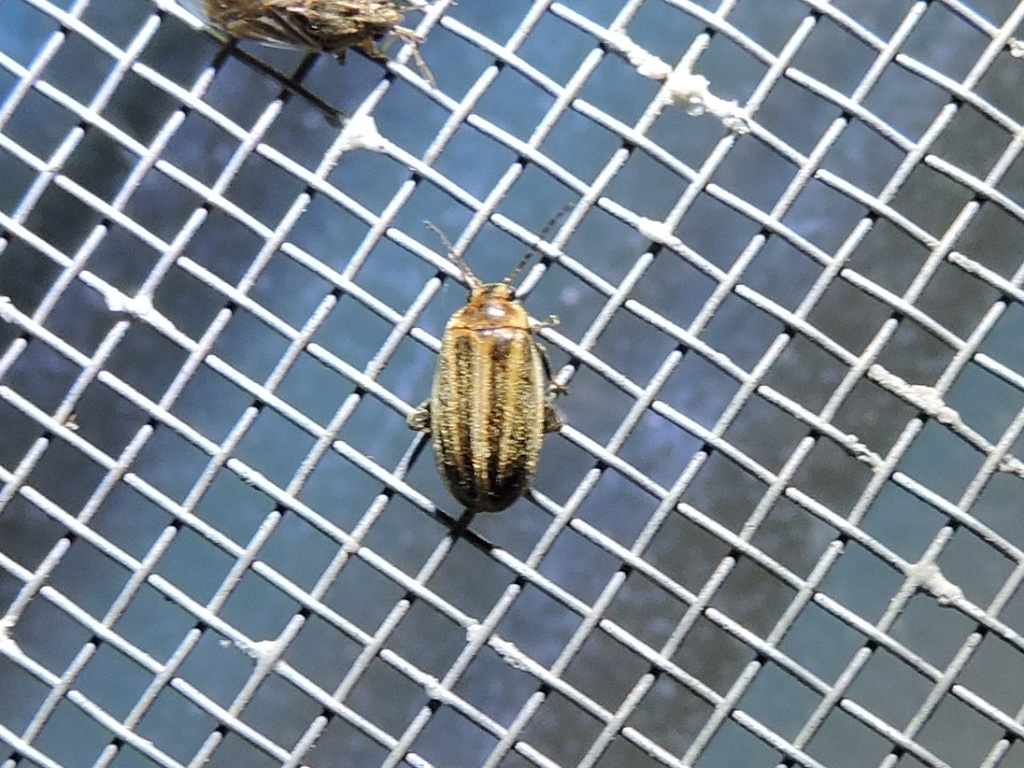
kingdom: Animalia
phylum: Arthropoda
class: Insecta
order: Coleoptera
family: Scirtidae
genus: Scirtes
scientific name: Scirtes oblongus
